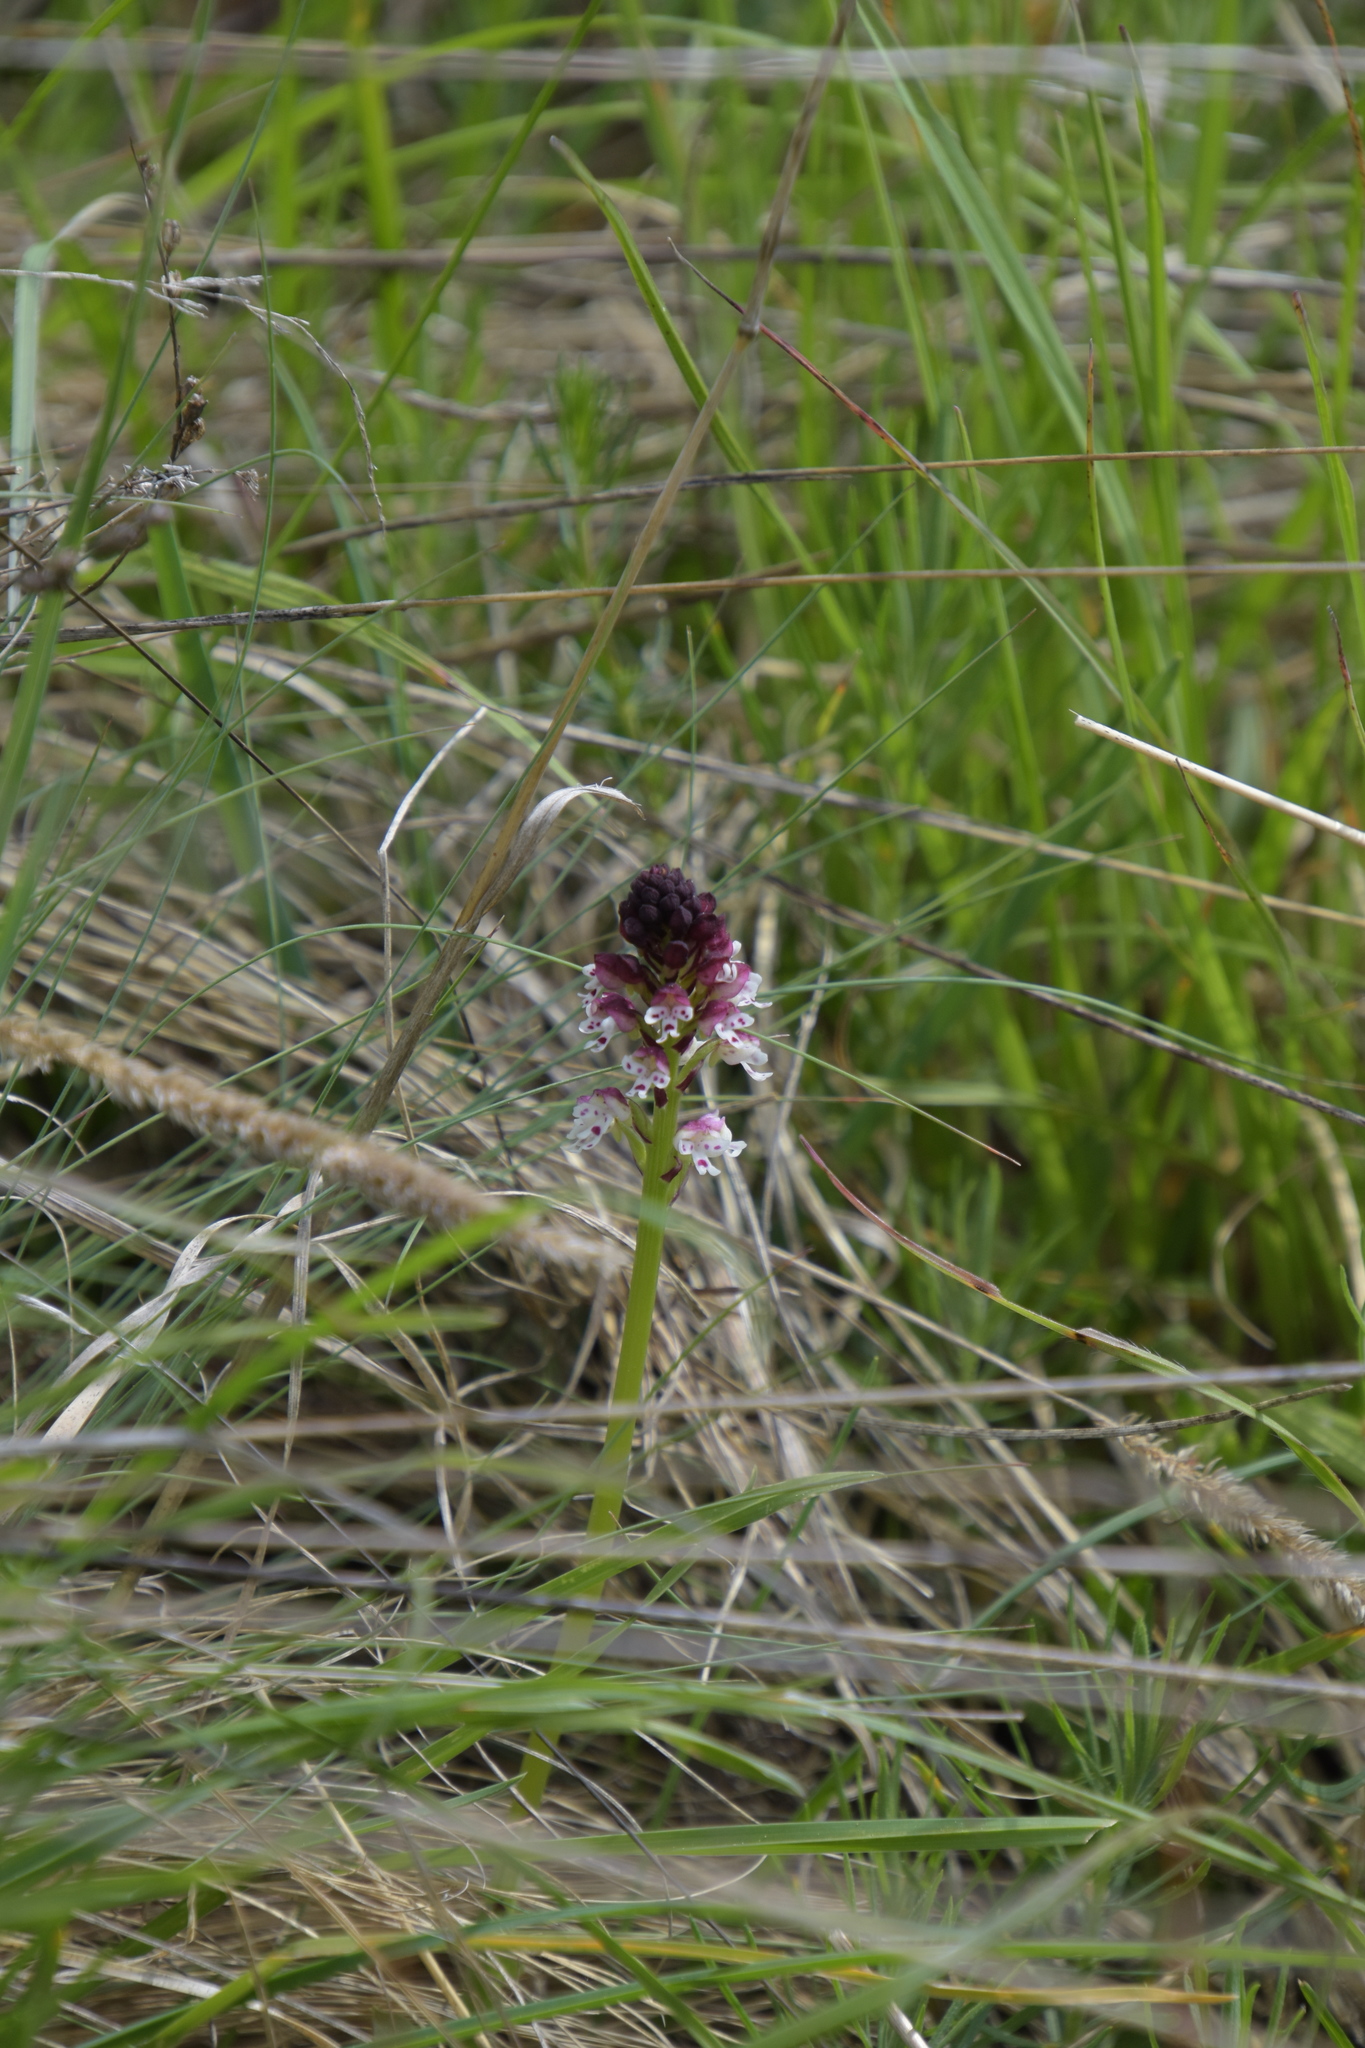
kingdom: Plantae
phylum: Tracheophyta
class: Liliopsida
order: Asparagales
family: Orchidaceae
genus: Neotinea
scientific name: Neotinea ustulata
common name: Burnt orchid
